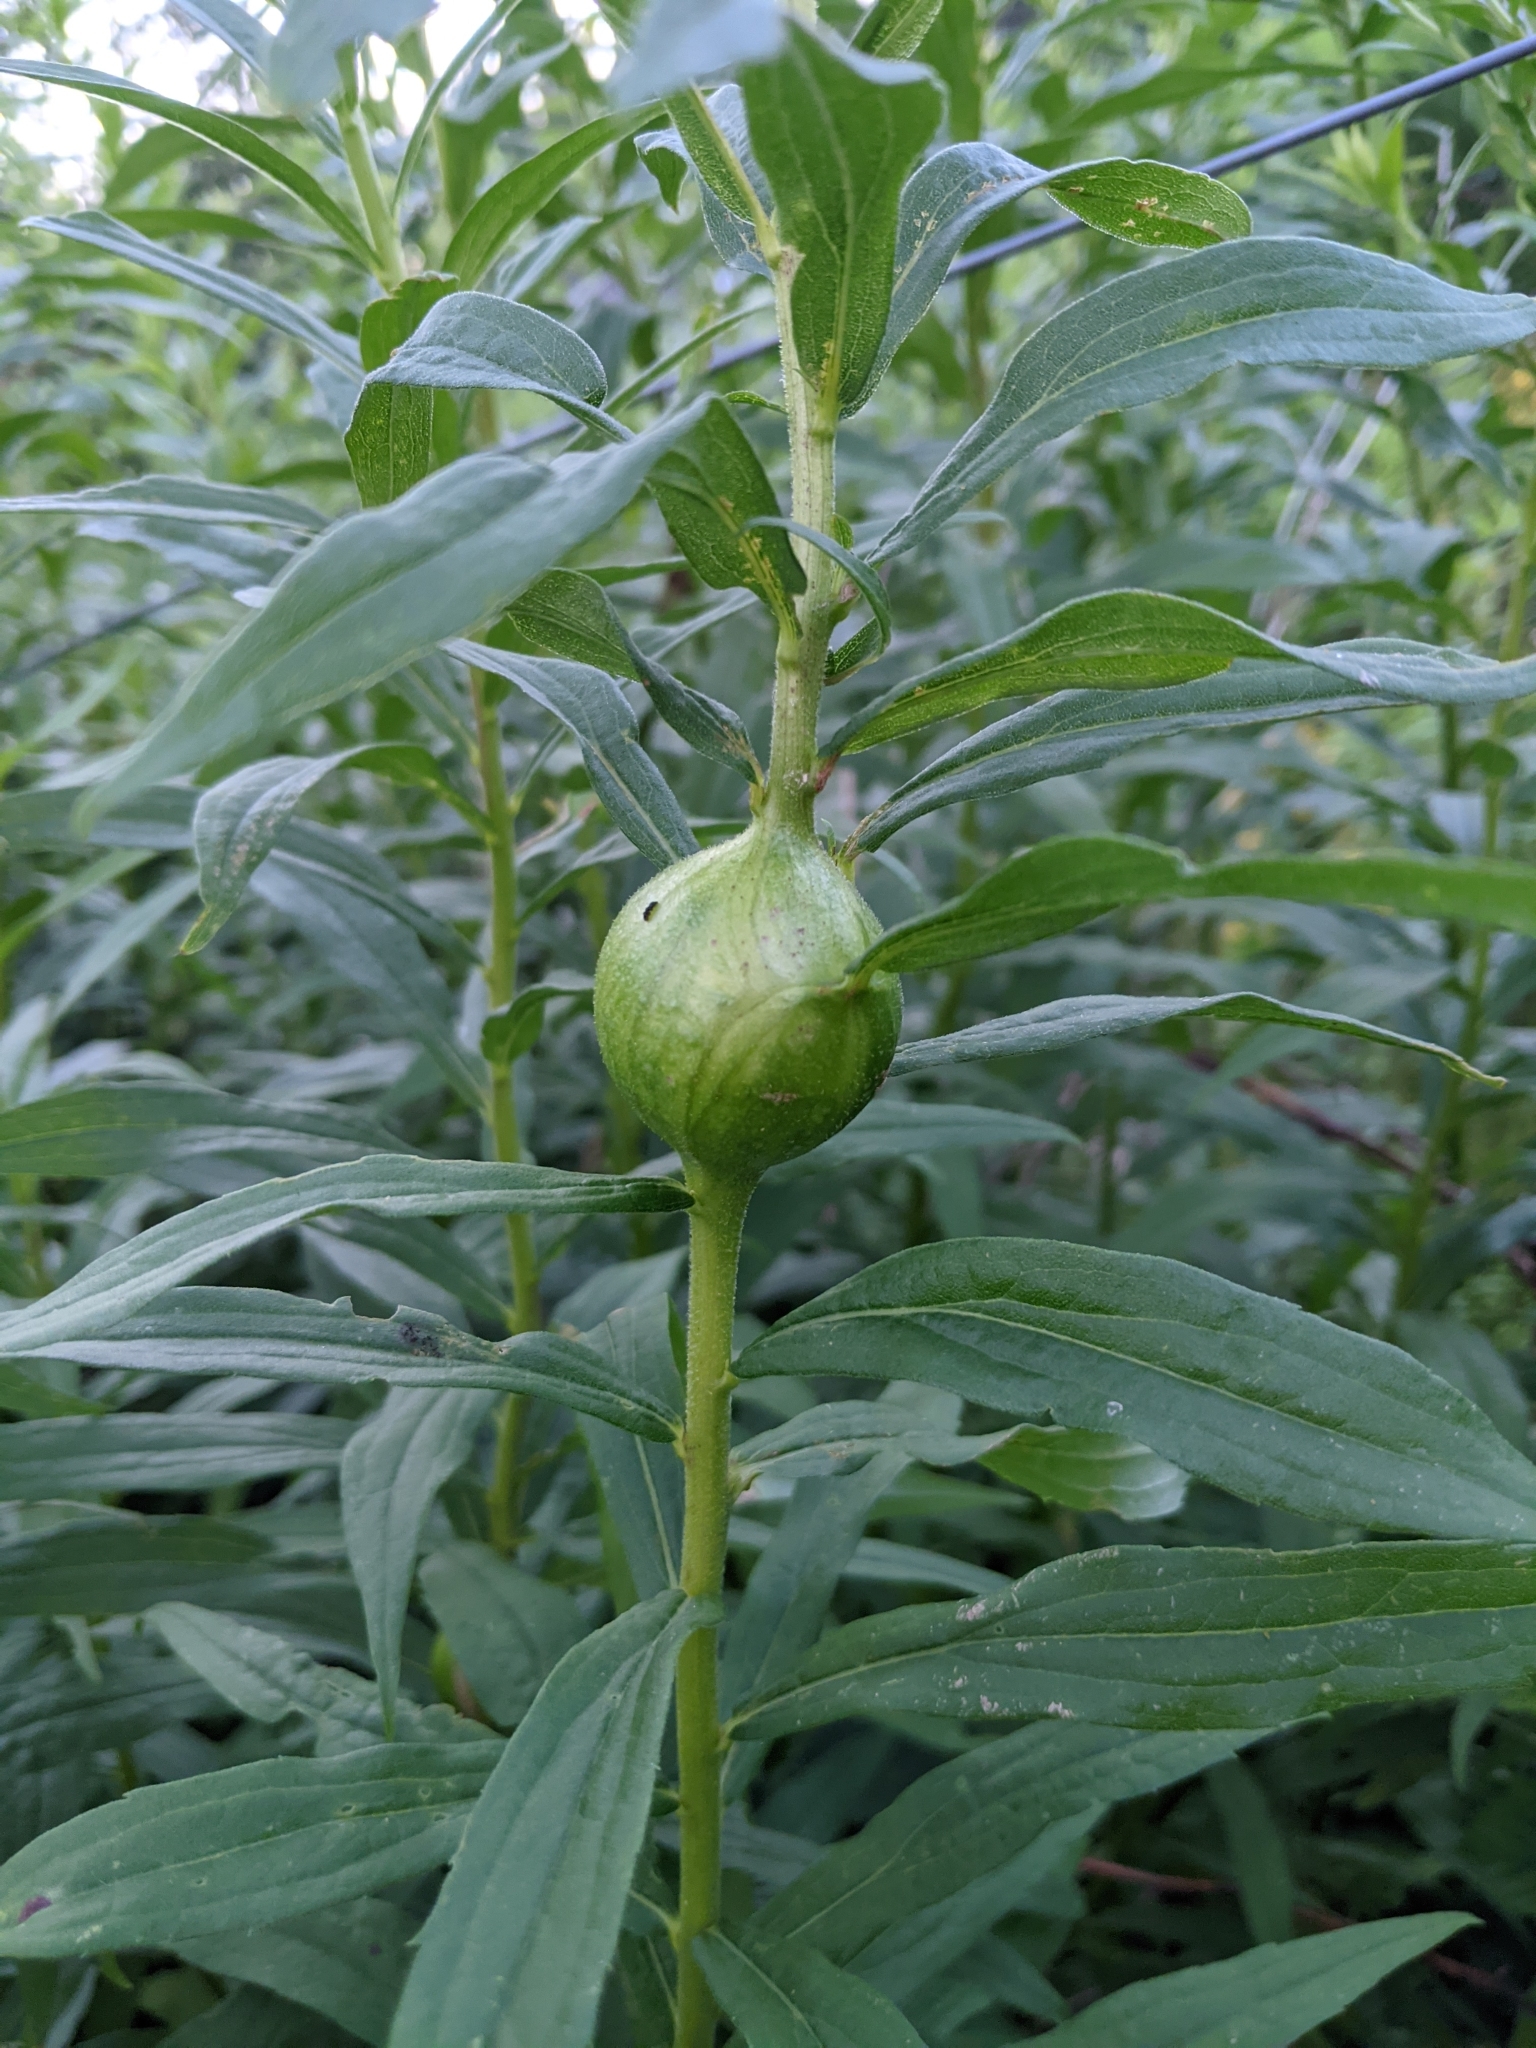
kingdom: Animalia
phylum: Arthropoda
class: Insecta
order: Diptera
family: Tephritidae
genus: Eurosta
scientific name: Eurosta solidaginis
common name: Goldenrod gall fly
